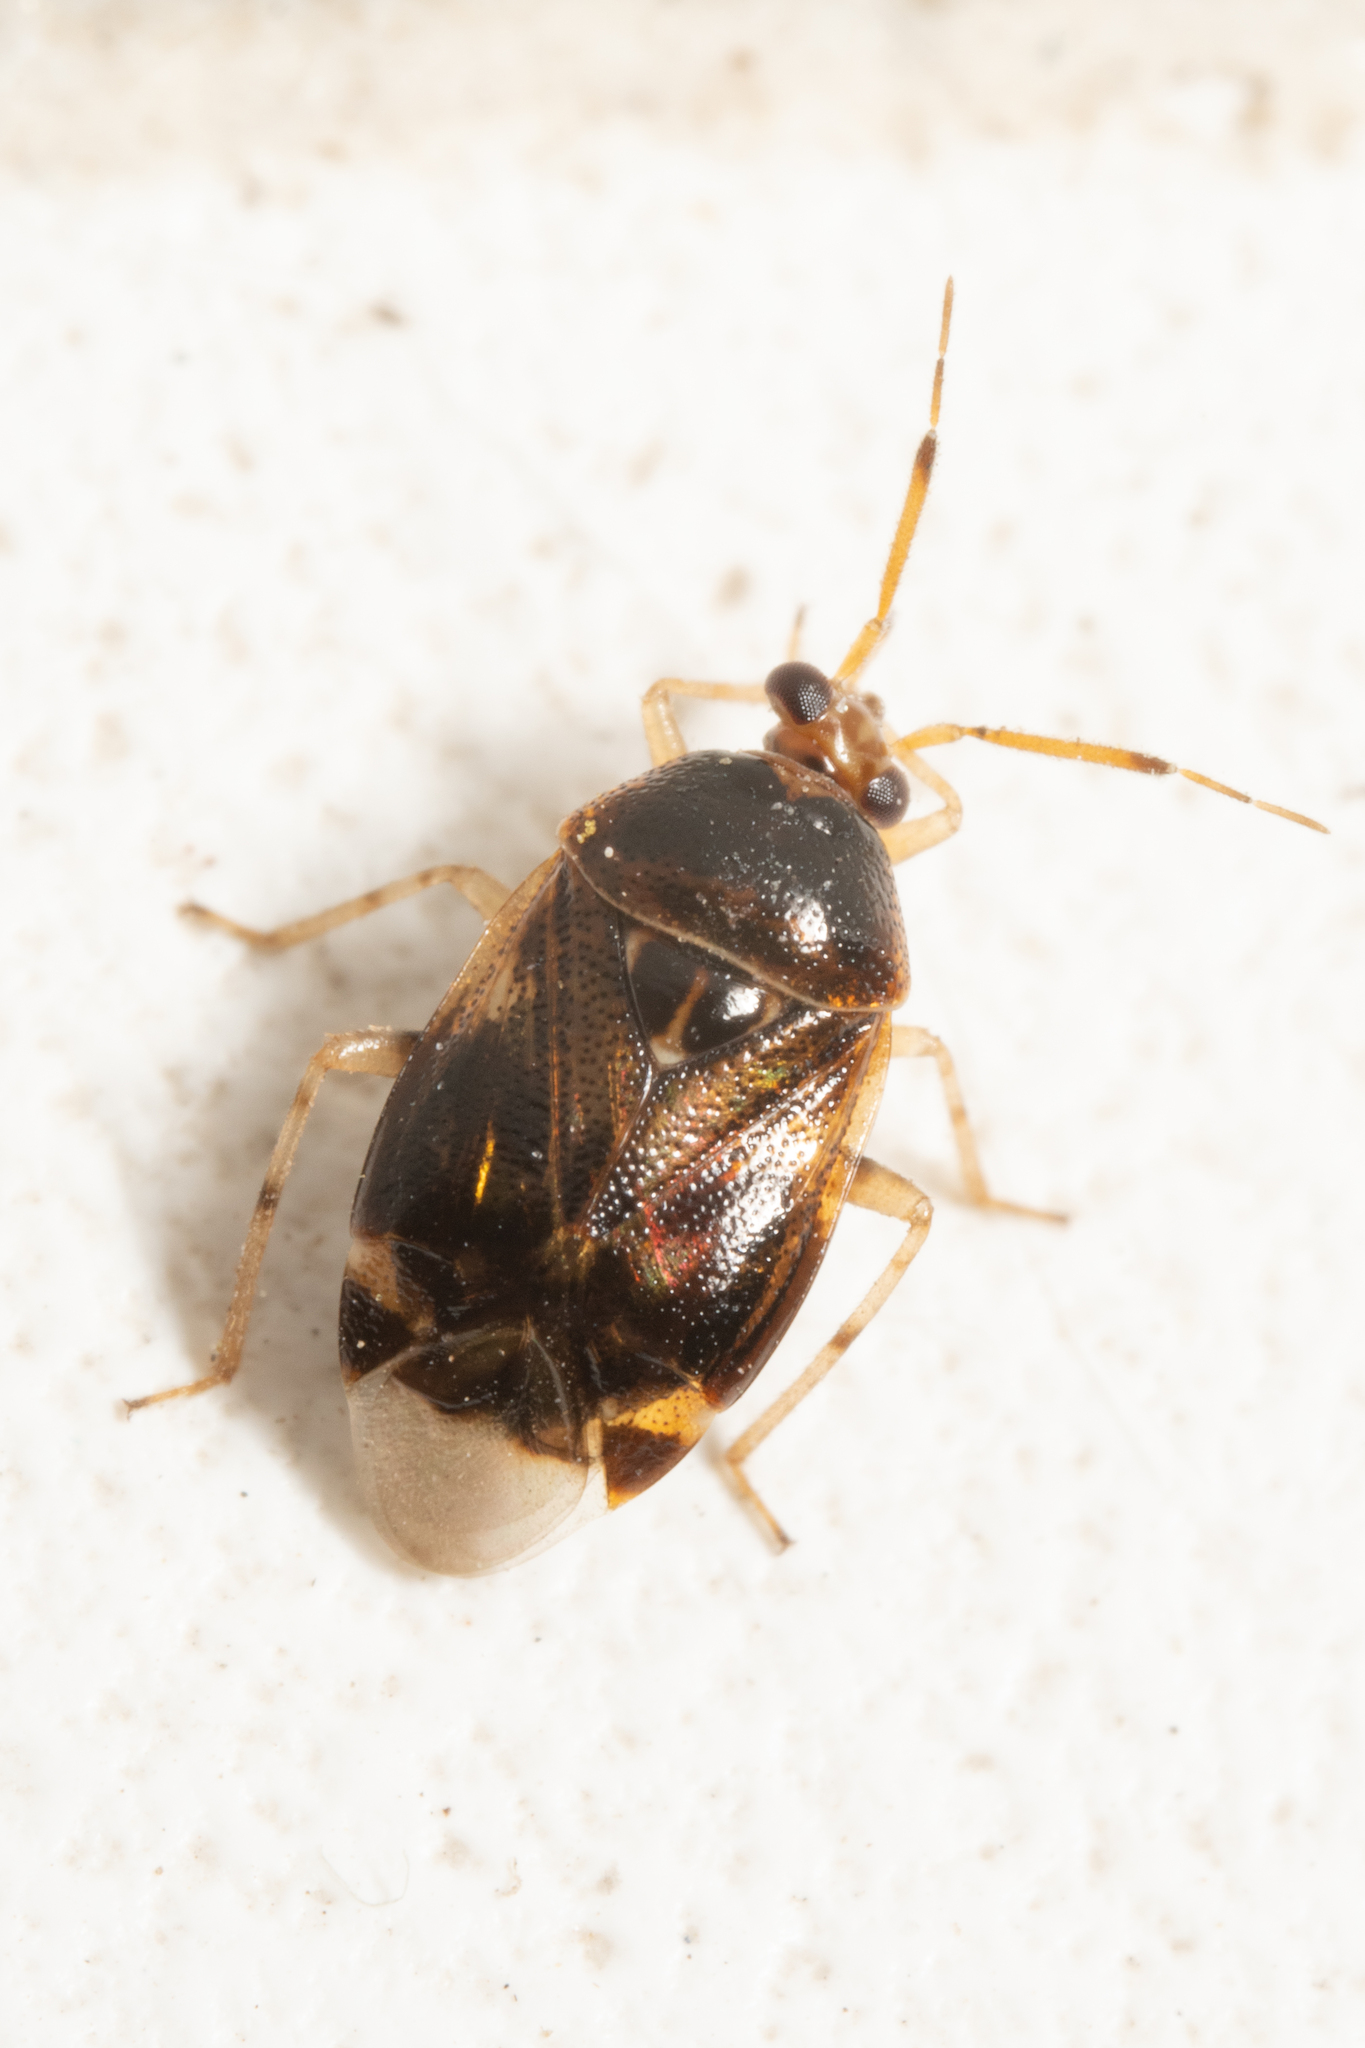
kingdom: Animalia
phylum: Arthropoda
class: Insecta
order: Hemiptera
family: Miridae
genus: Deraeocoris
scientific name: Deraeocoris lutescens
